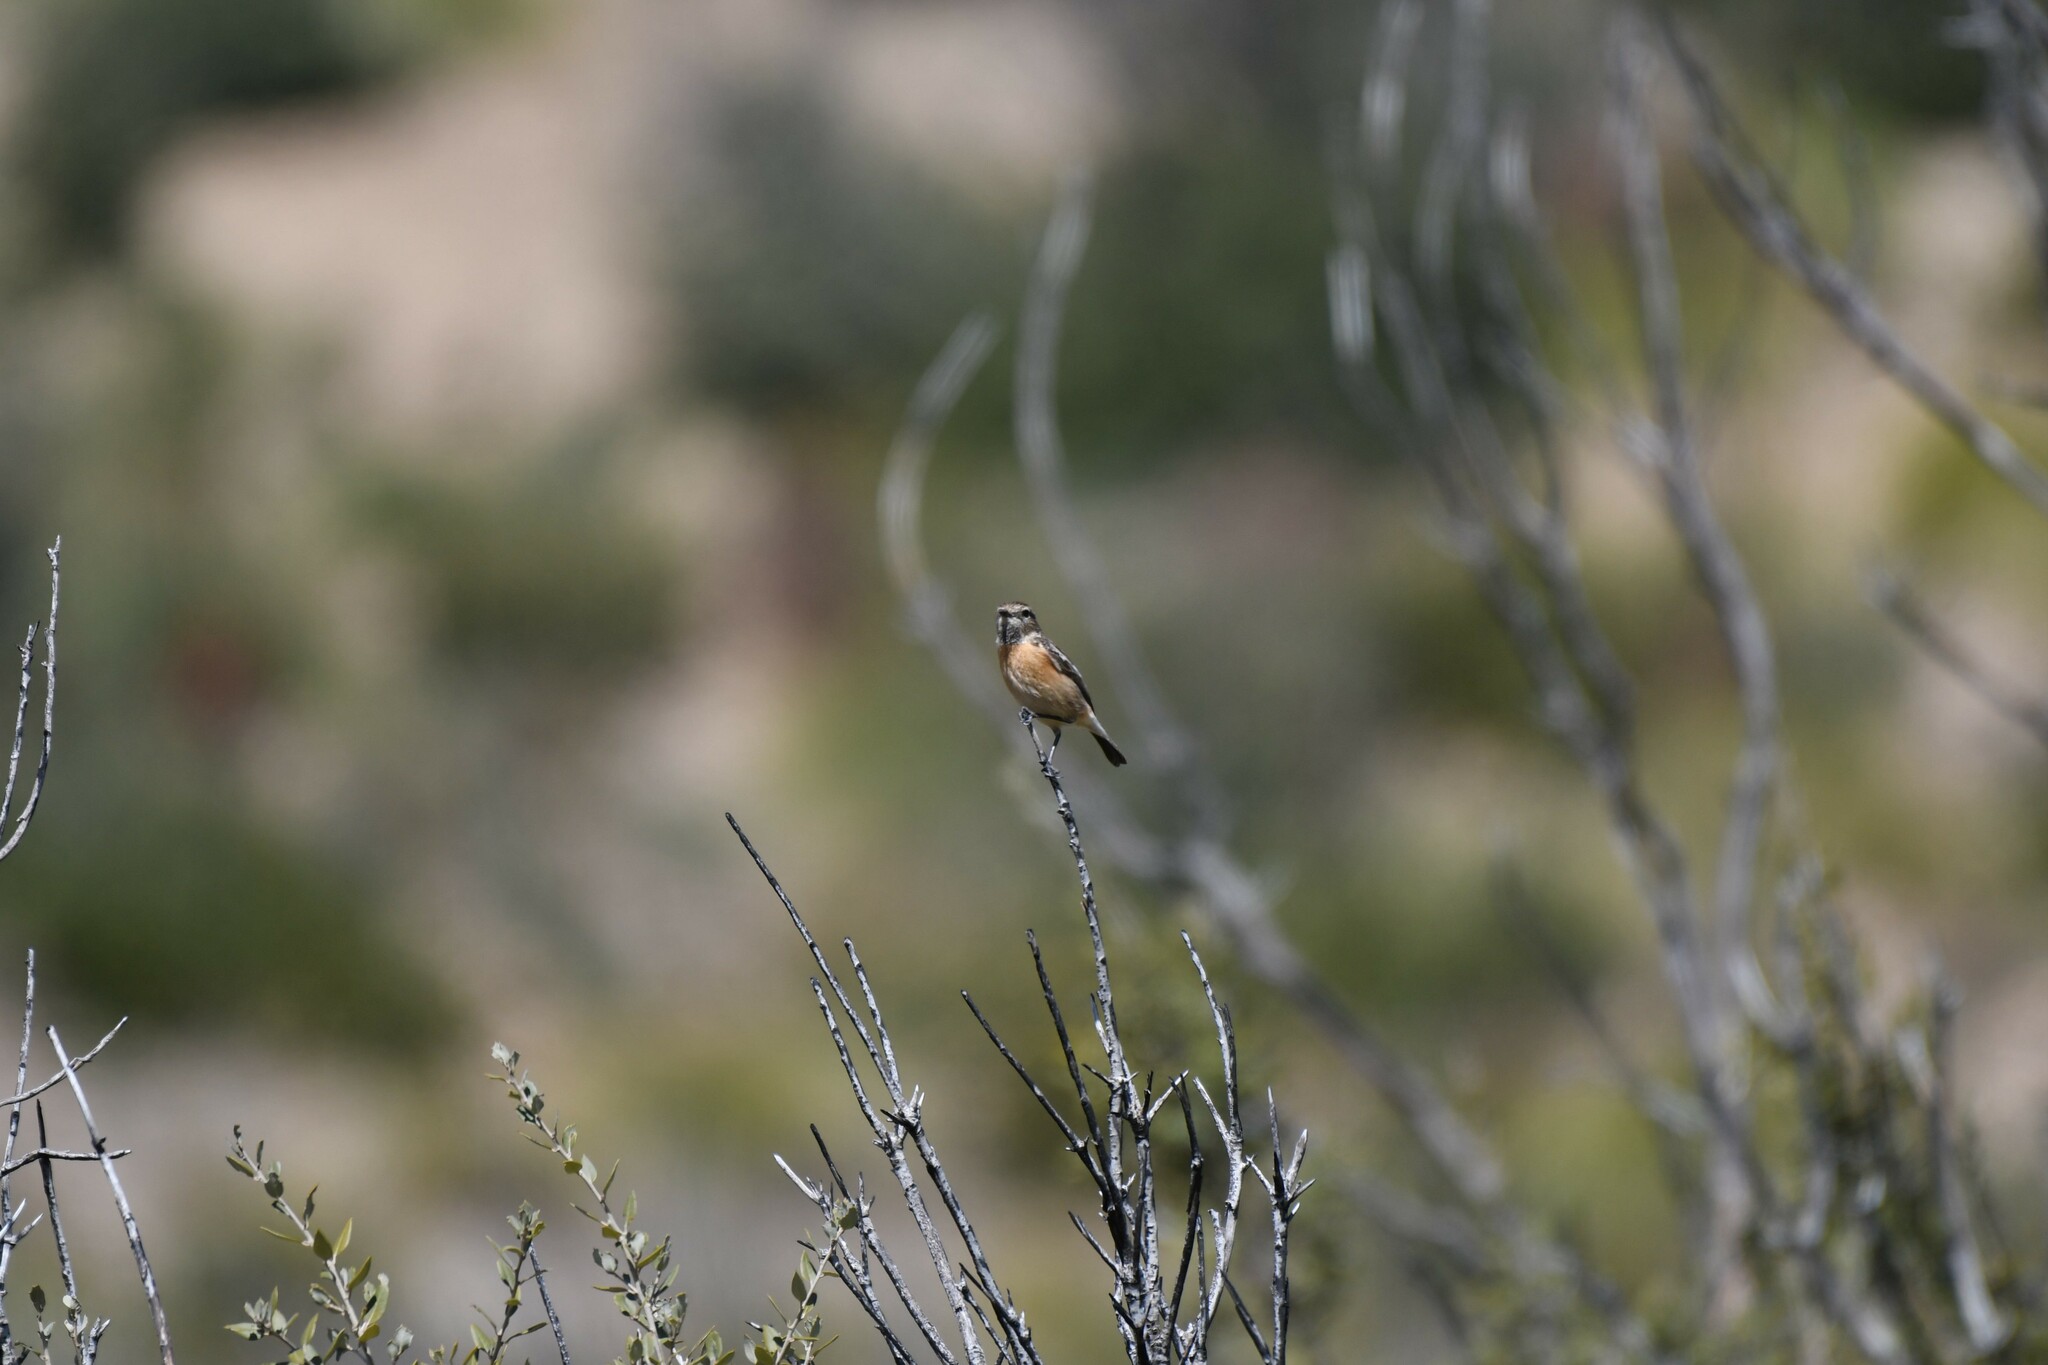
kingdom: Animalia
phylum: Chordata
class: Aves
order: Passeriformes
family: Muscicapidae
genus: Saxicola
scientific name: Saxicola rubicola
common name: European stonechat
